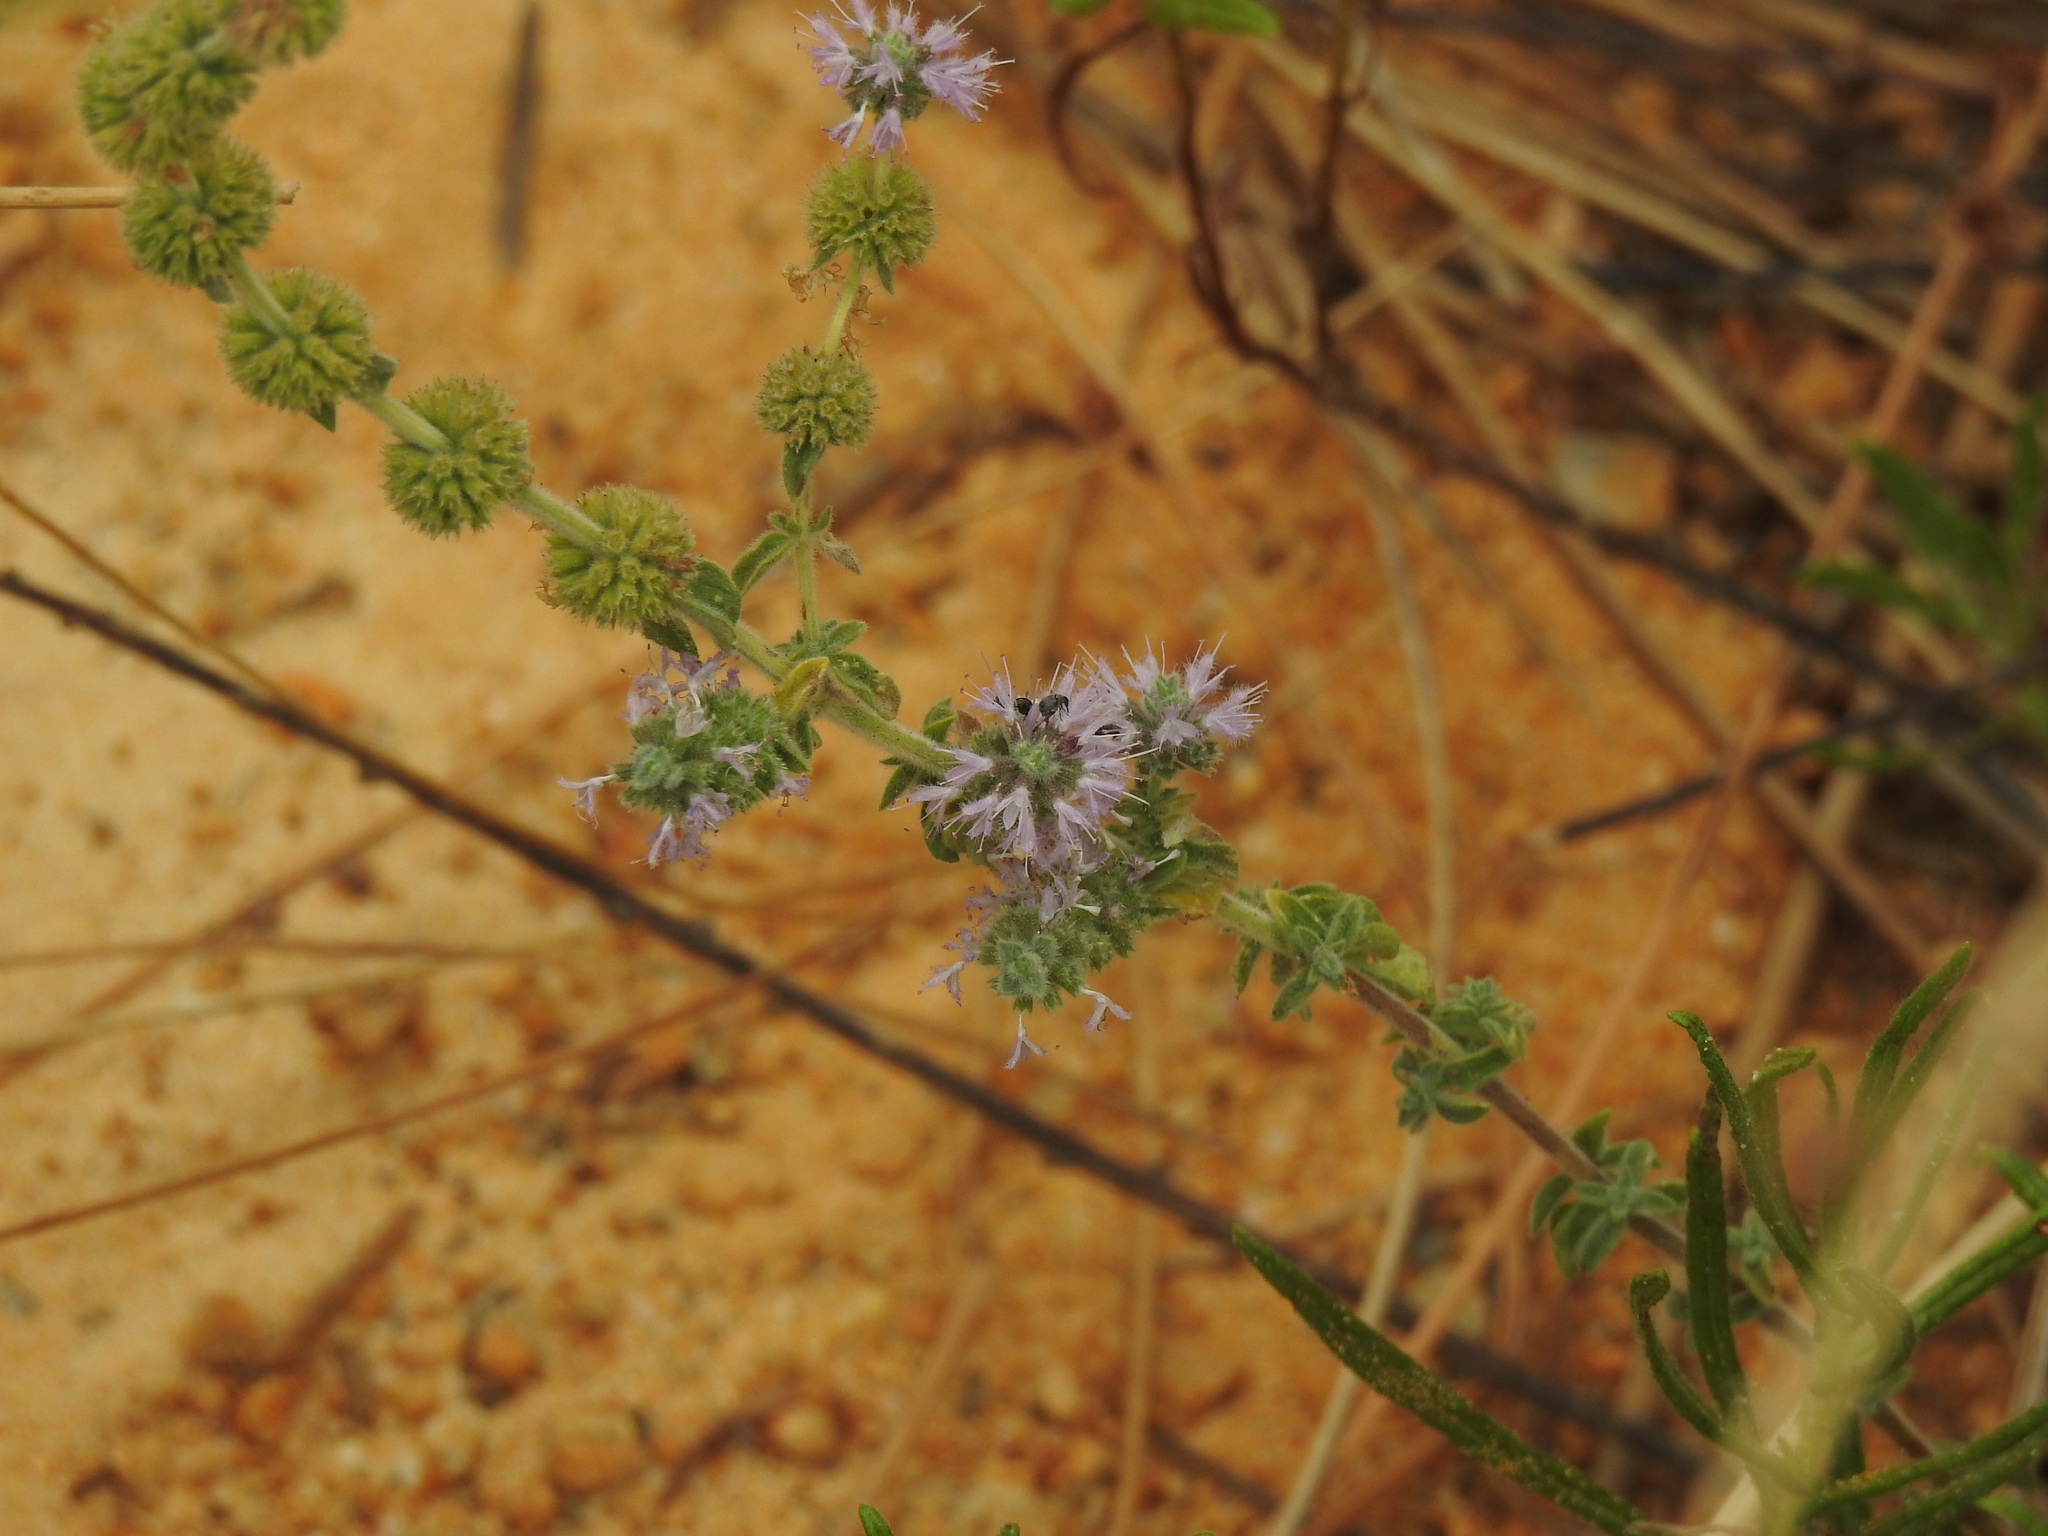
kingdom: Plantae
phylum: Tracheophyta
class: Magnoliopsida
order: Lamiales
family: Lamiaceae
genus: Mentha
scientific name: Mentha pulegium
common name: Pennyroyal
